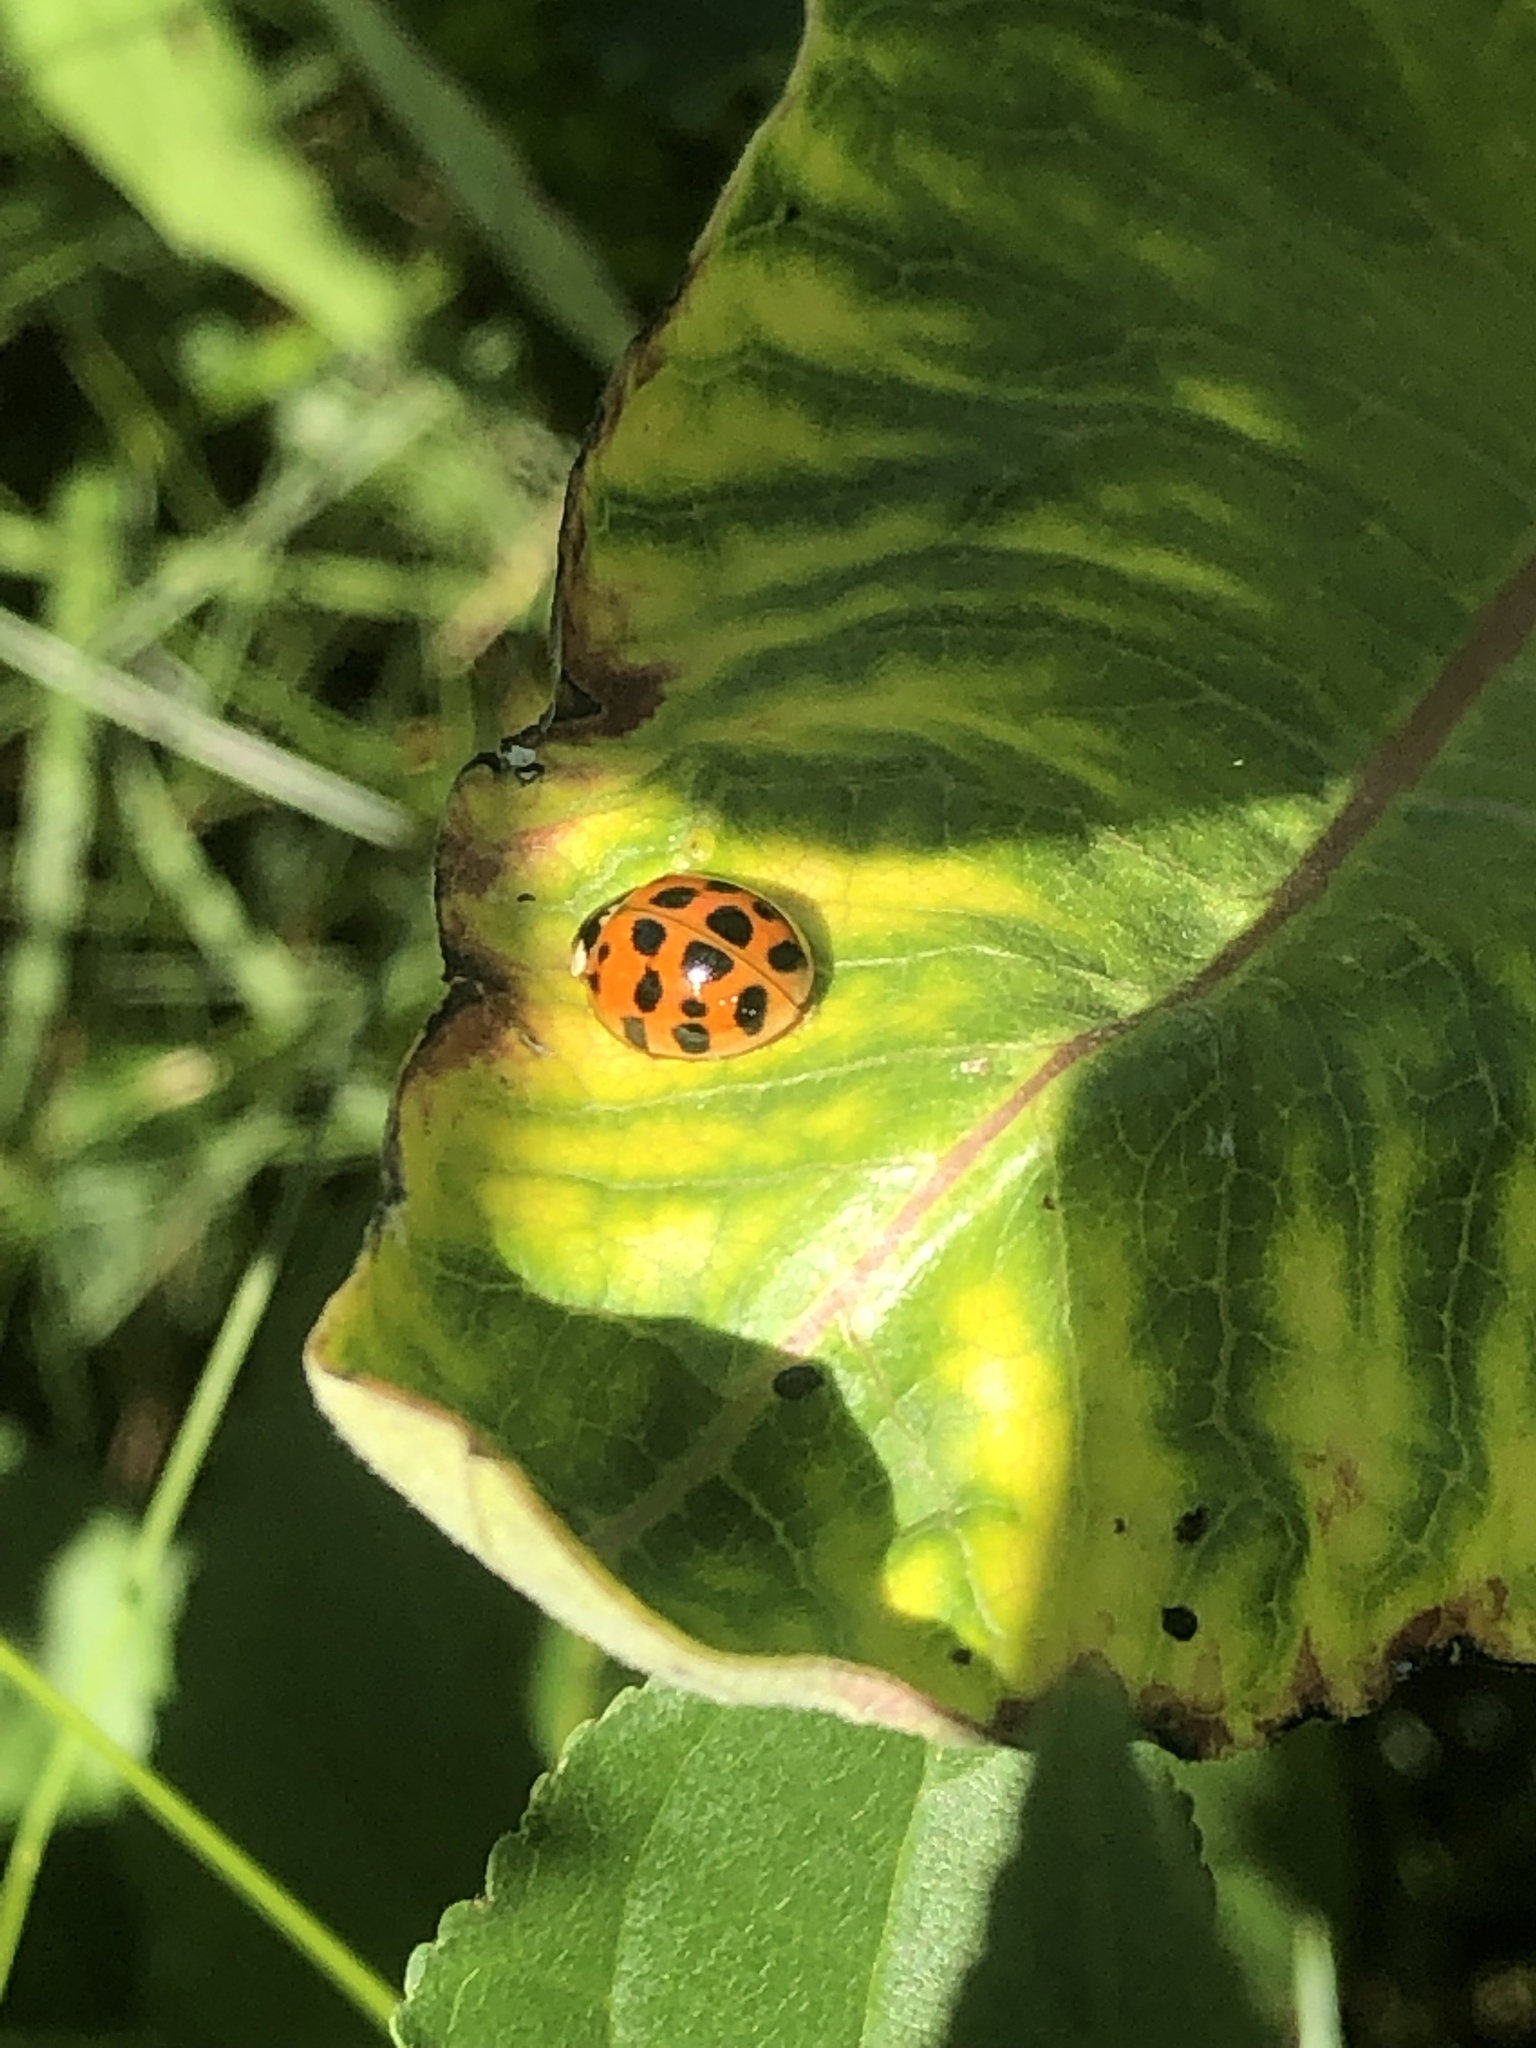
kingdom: Animalia
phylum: Arthropoda
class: Insecta
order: Coleoptera
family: Coccinellidae
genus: Harmonia
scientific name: Harmonia axyridis
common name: Harlequin ladybird
